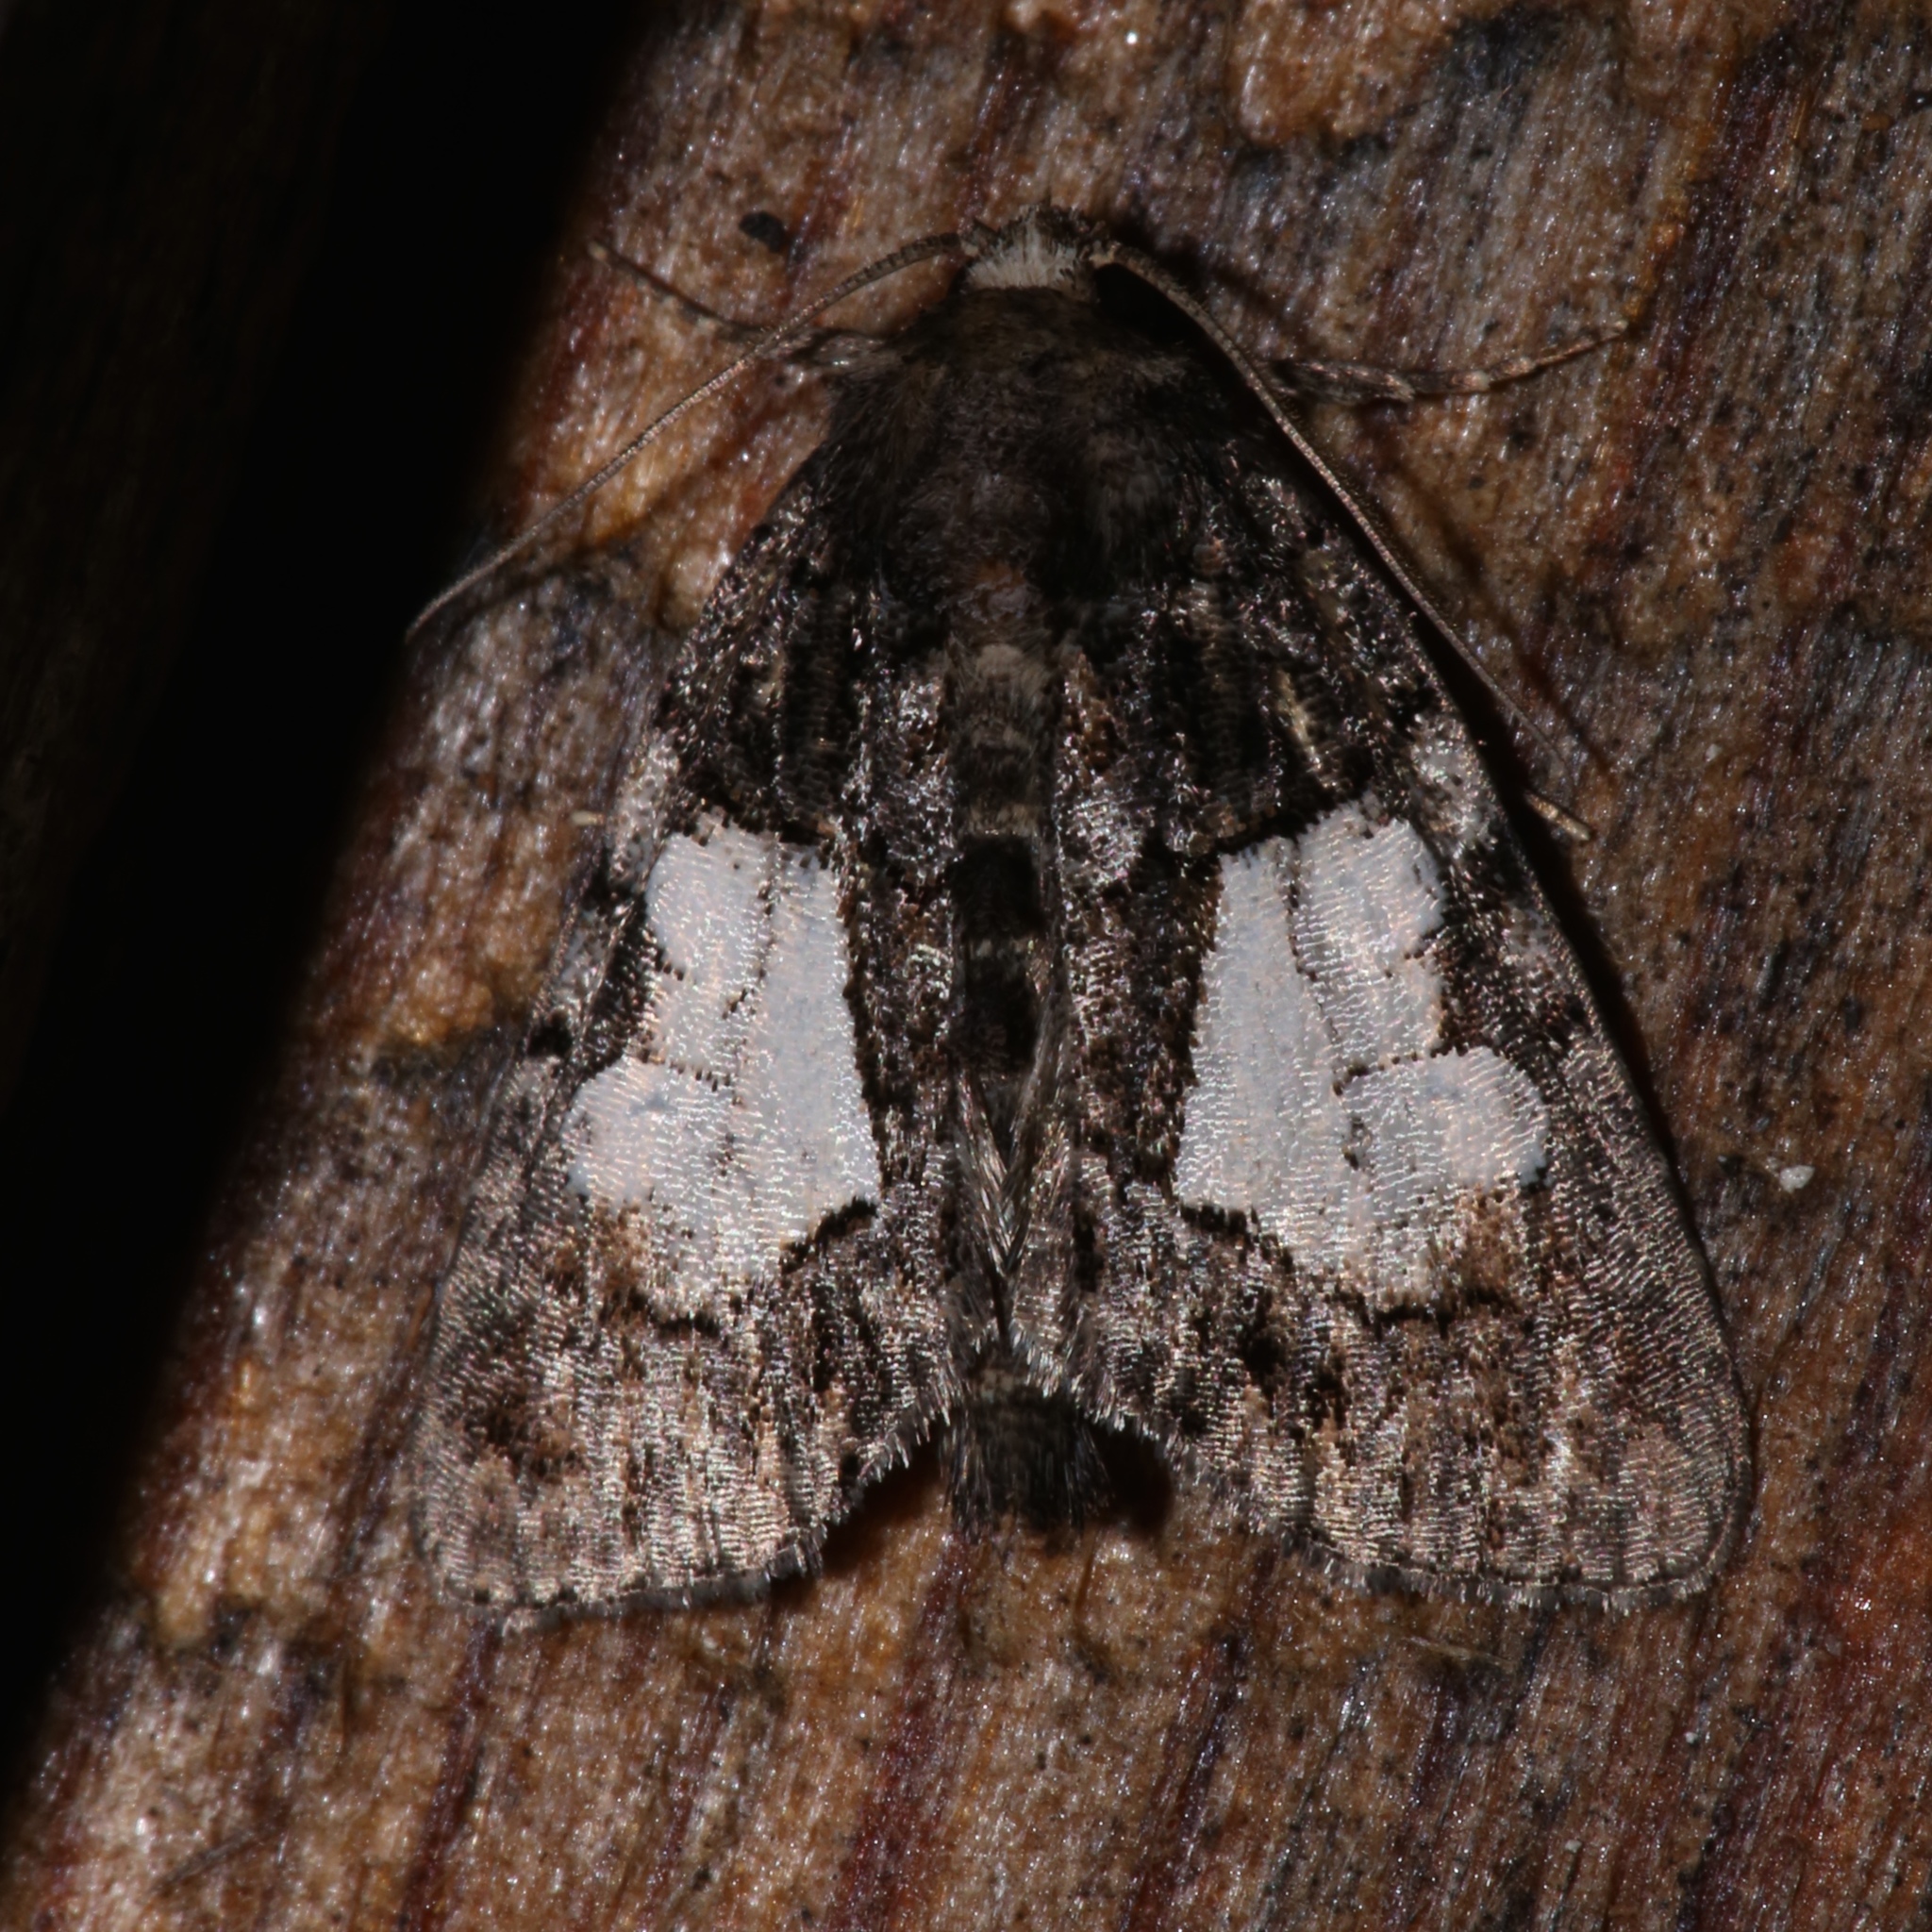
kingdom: Animalia
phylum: Arthropoda
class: Insecta
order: Lepidoptera
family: Noctuidae
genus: Chytonix
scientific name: Chytonix palliatricula
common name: Cloaked marvel
